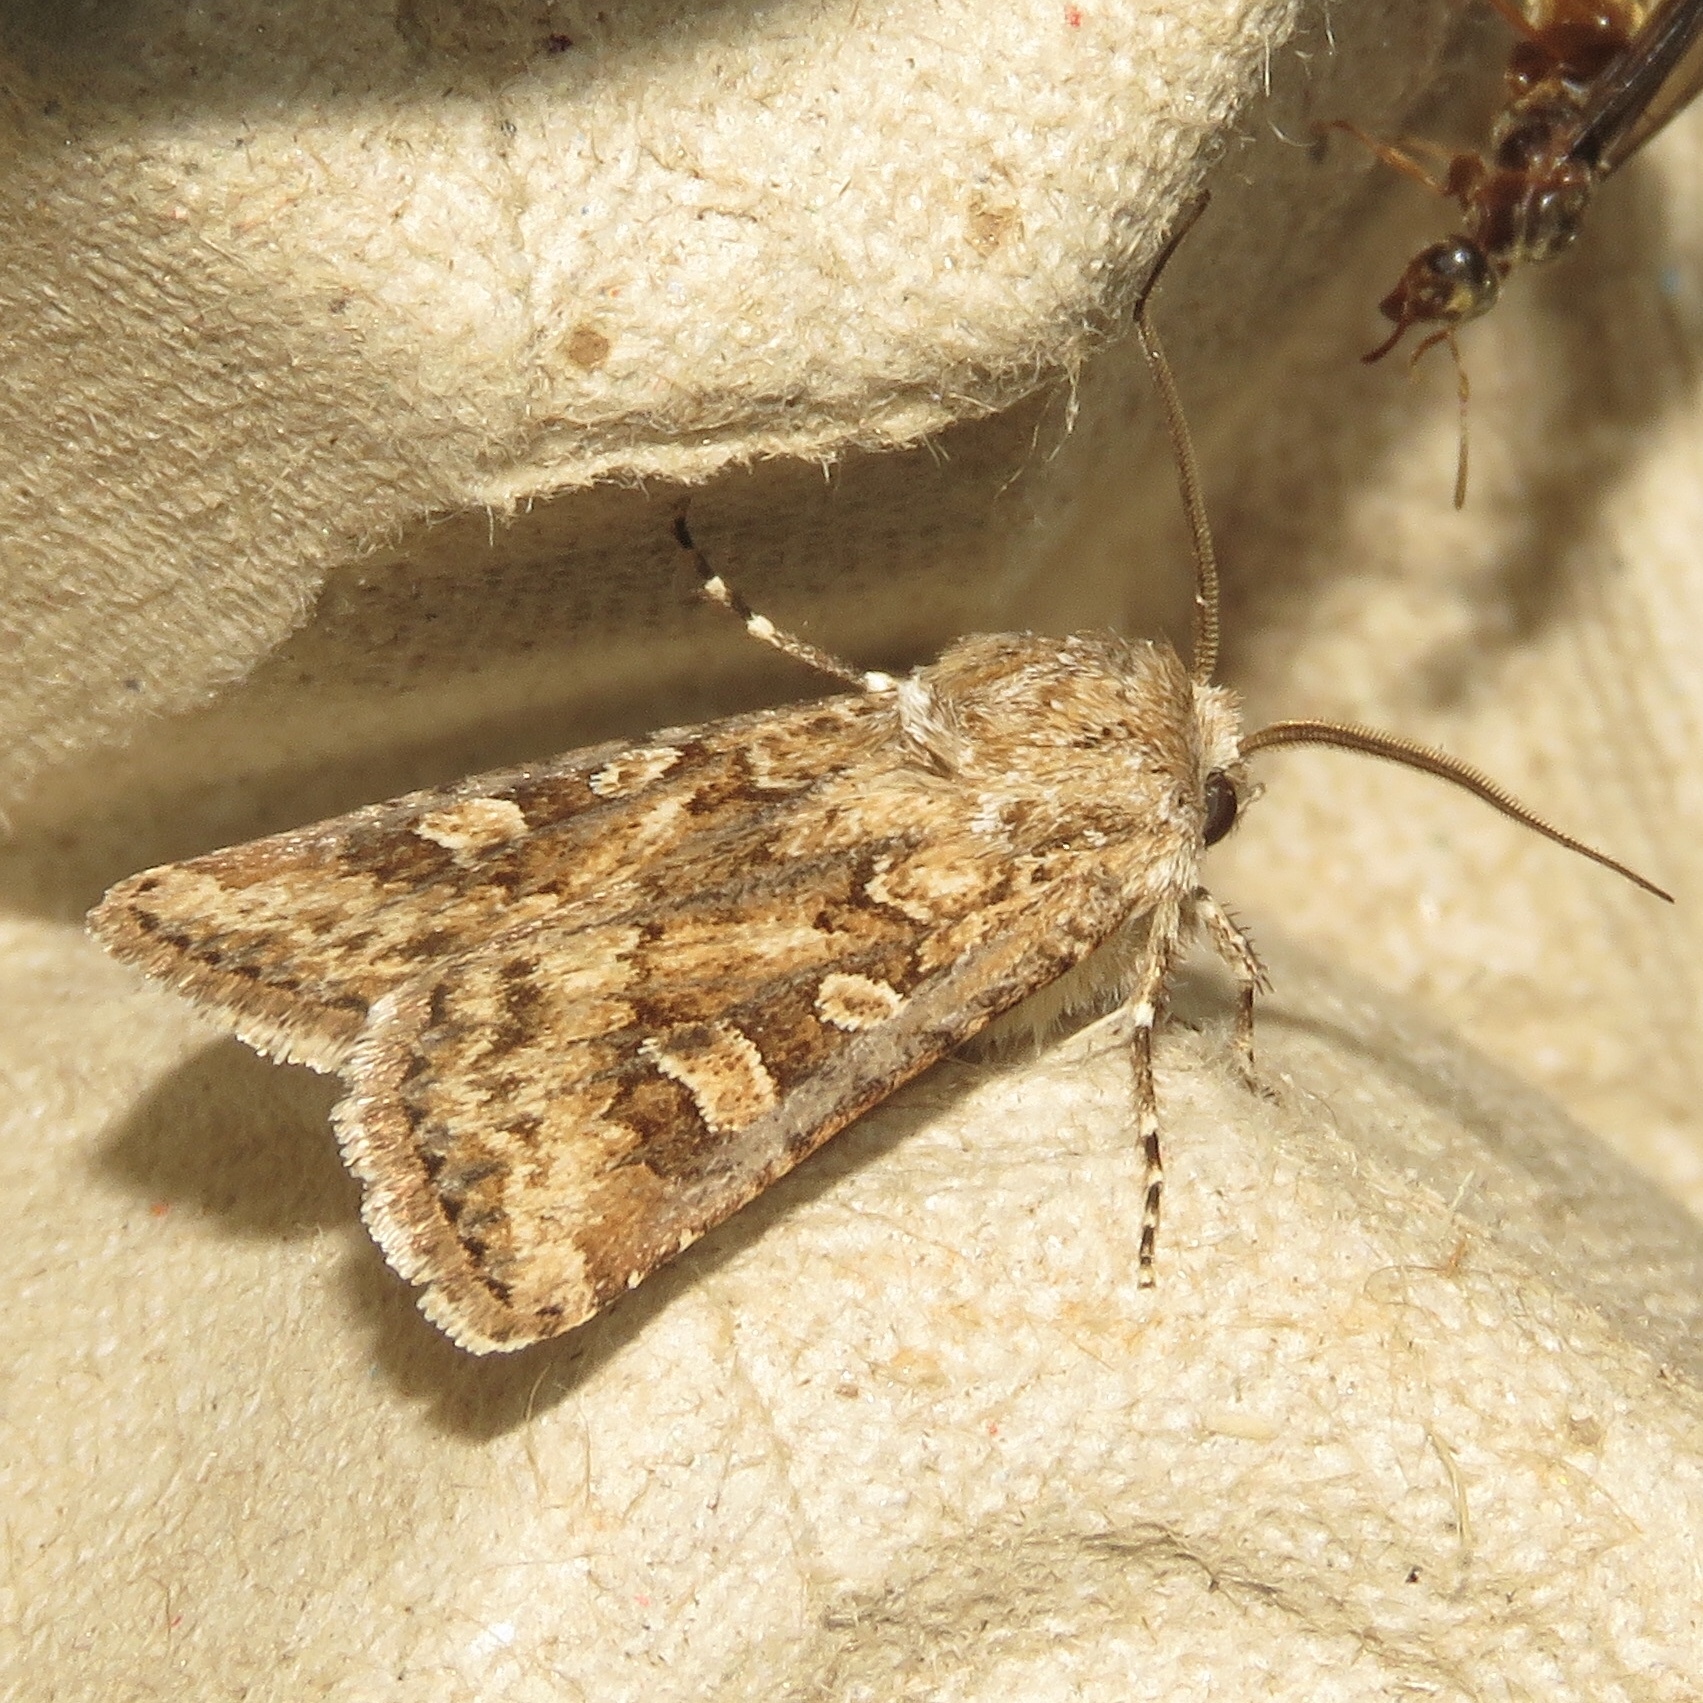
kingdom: Animalia
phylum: Arthropoda
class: Insecta
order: Lepidoptera
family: Noctuidae
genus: Euxoa
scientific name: Euxoa detersa
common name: Rubbed dart
